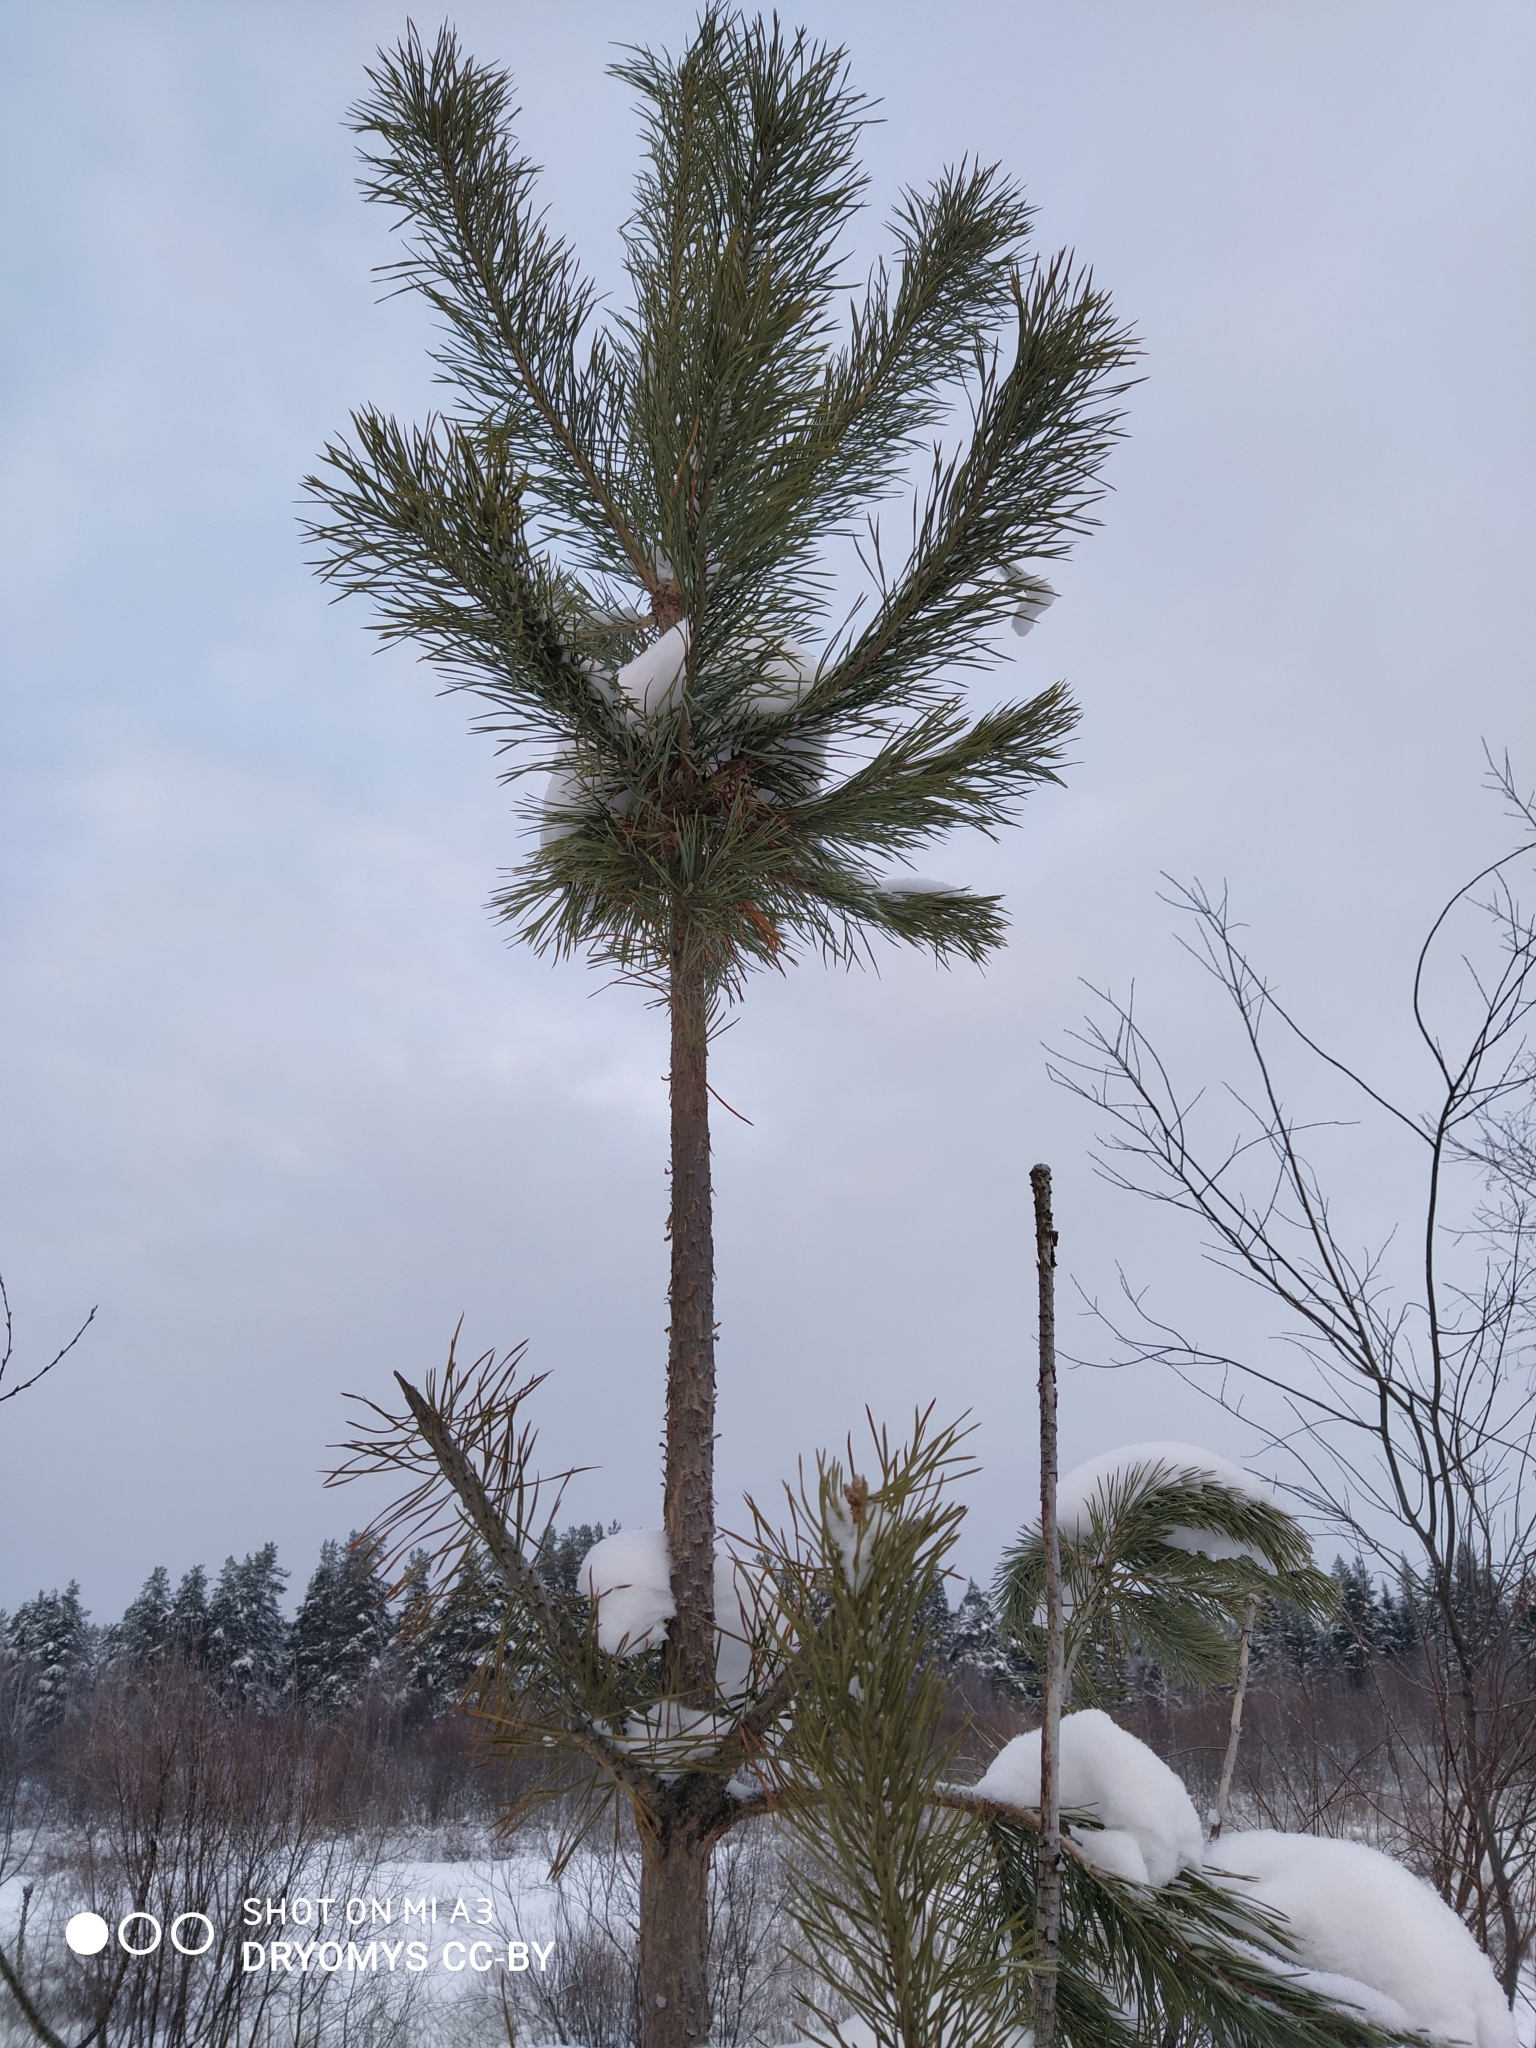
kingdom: Plantae
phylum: Tracheophyta
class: Pinopsida
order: Pinales
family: Pinaceae
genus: Pinus
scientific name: Pinus sylvestris
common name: Scots pine
